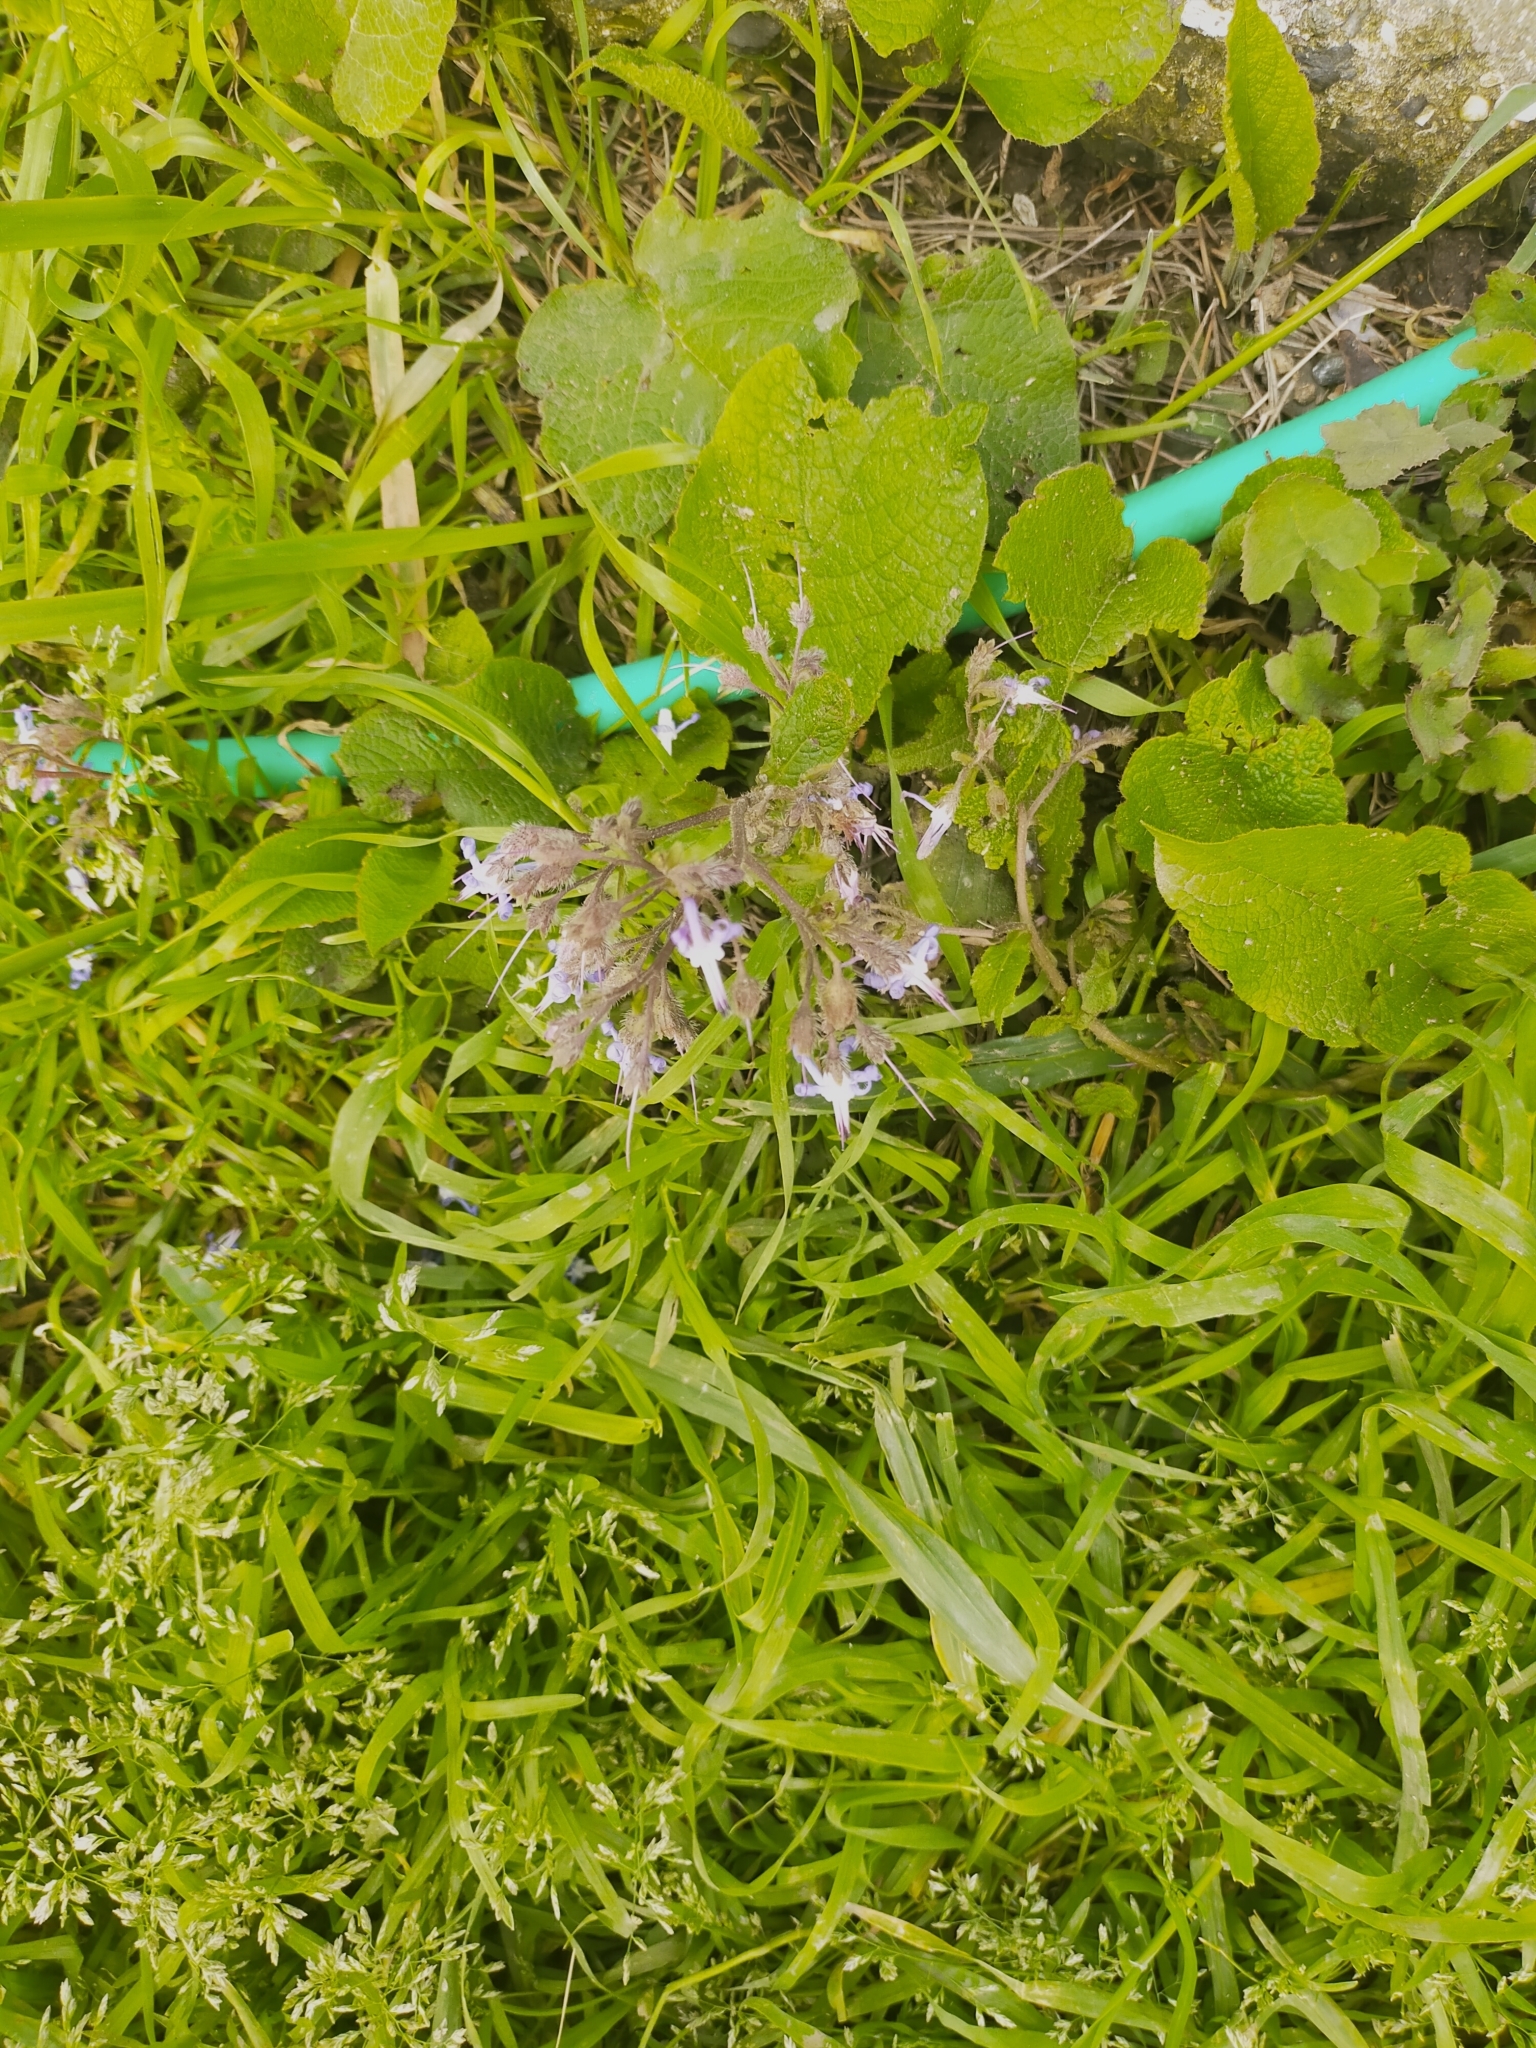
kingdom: Plantae
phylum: Tracheophyta
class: Magnoliopsida
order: Boraginales
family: Boraginaceae
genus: Trachystemon
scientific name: Trachystemon orientale
